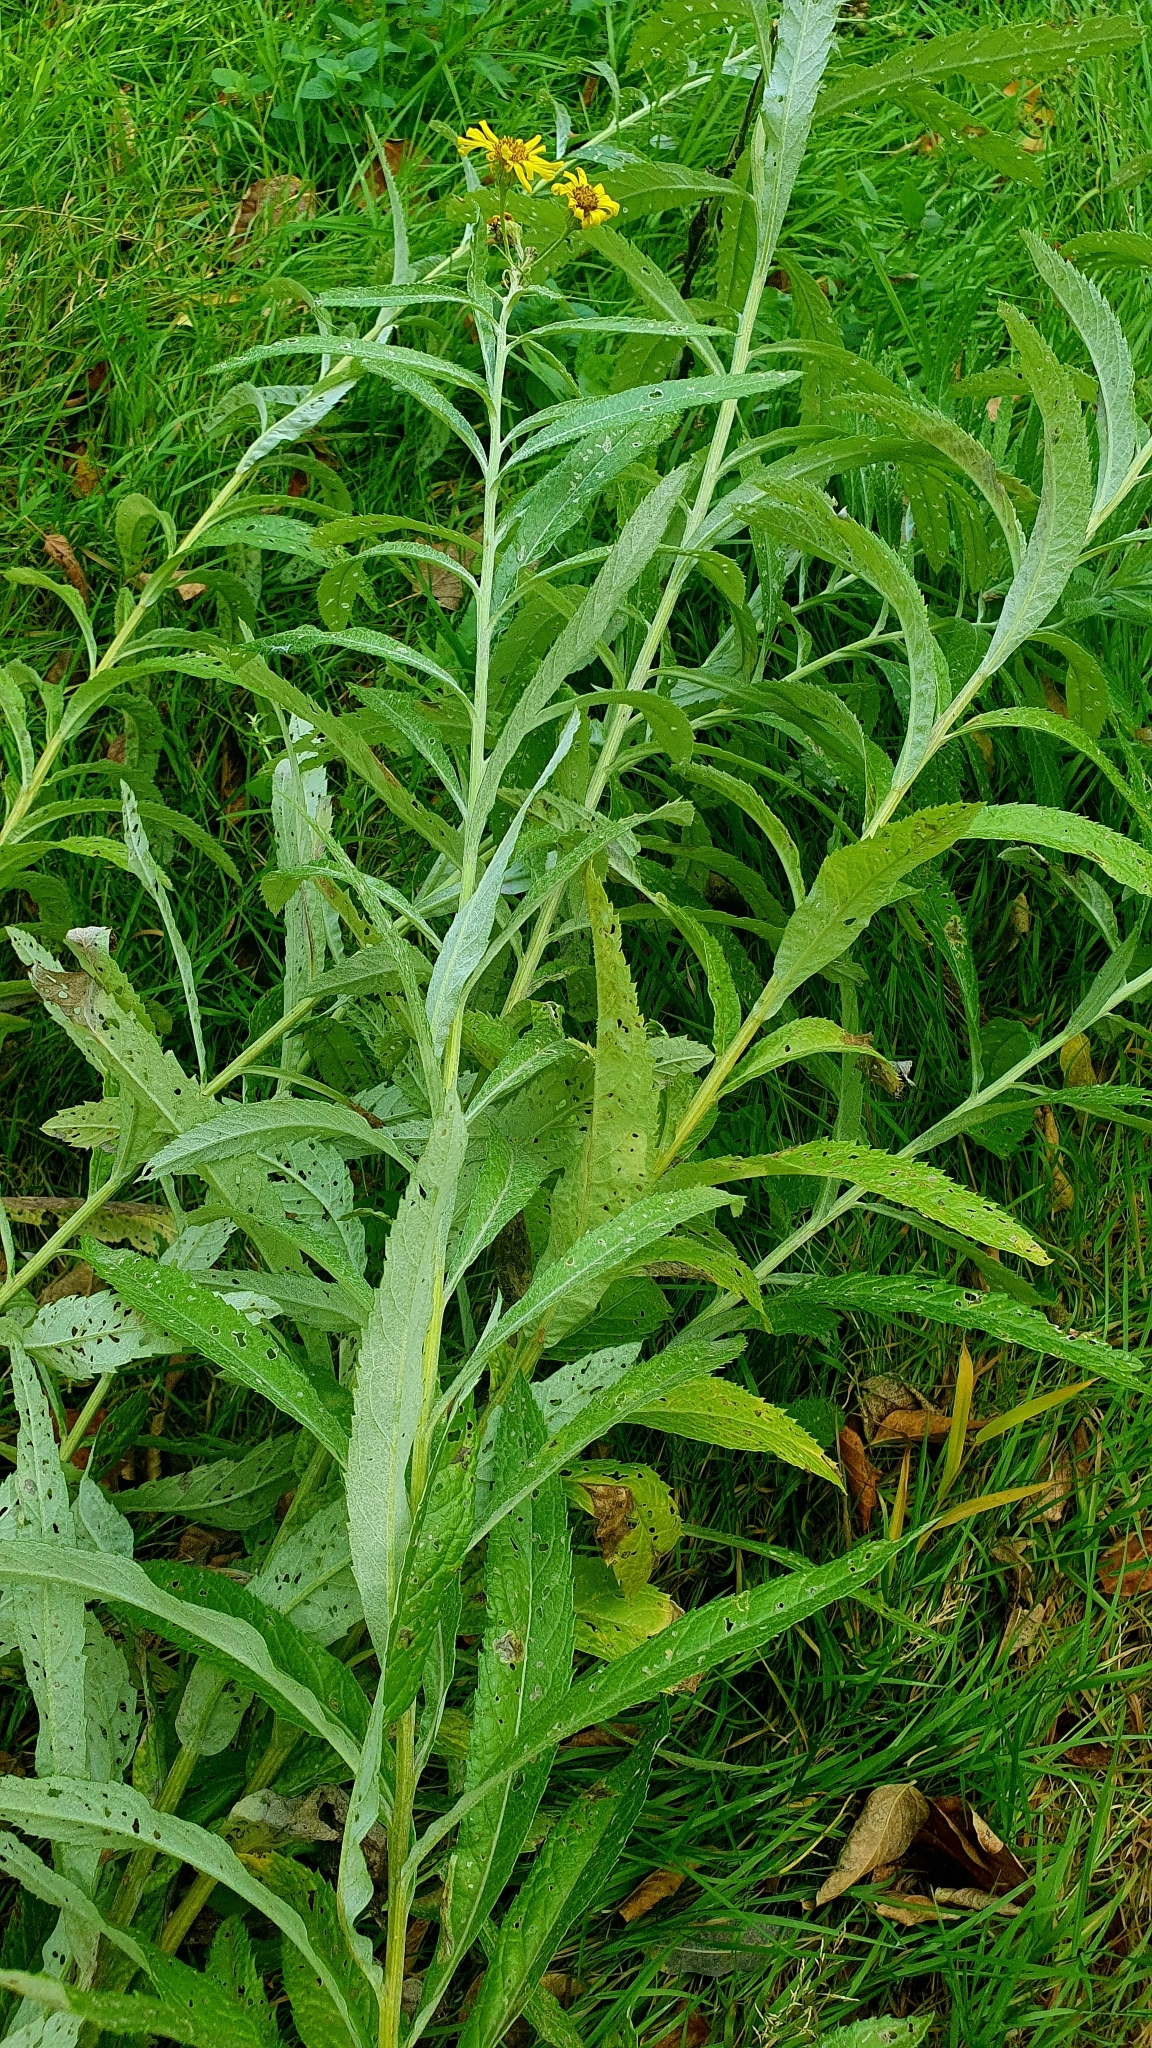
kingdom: Plantae
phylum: Tracheophyta
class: Magnoliopsida
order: Asterales
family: Asteraceae
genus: Jacobaea
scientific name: Jacobaea paludosa
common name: Fen ragwort
